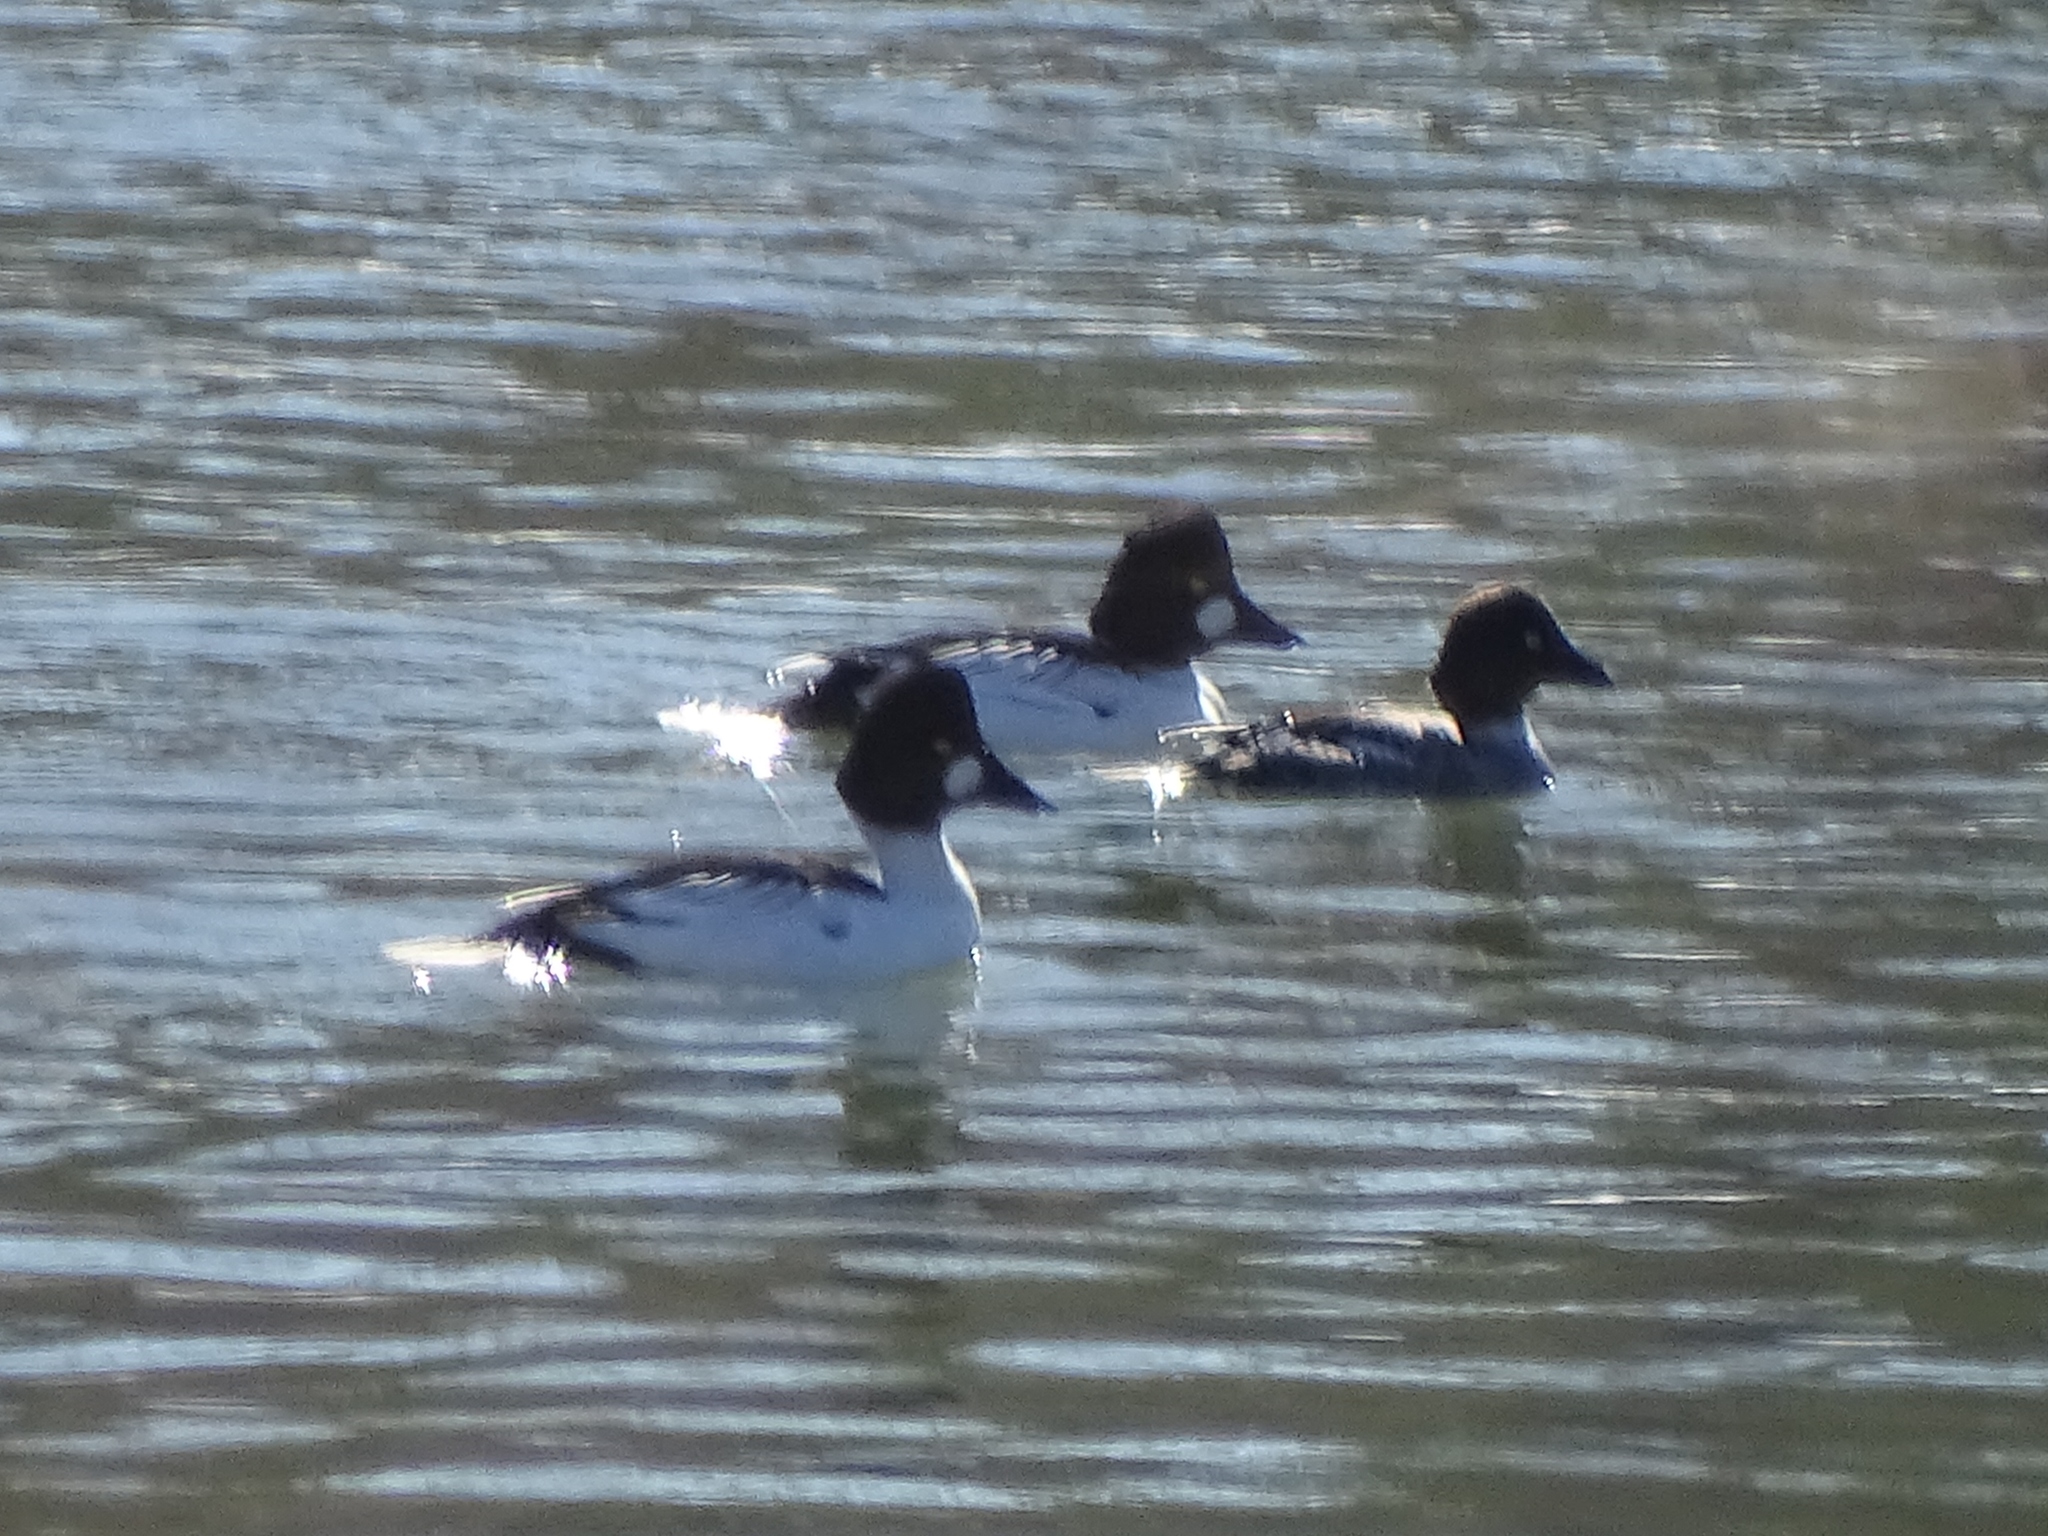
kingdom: Animalia
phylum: Chordata
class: Aves
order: Anseriformes
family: Anatidae
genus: Bucephala
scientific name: Bucephala clangula
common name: Common goldeneye
